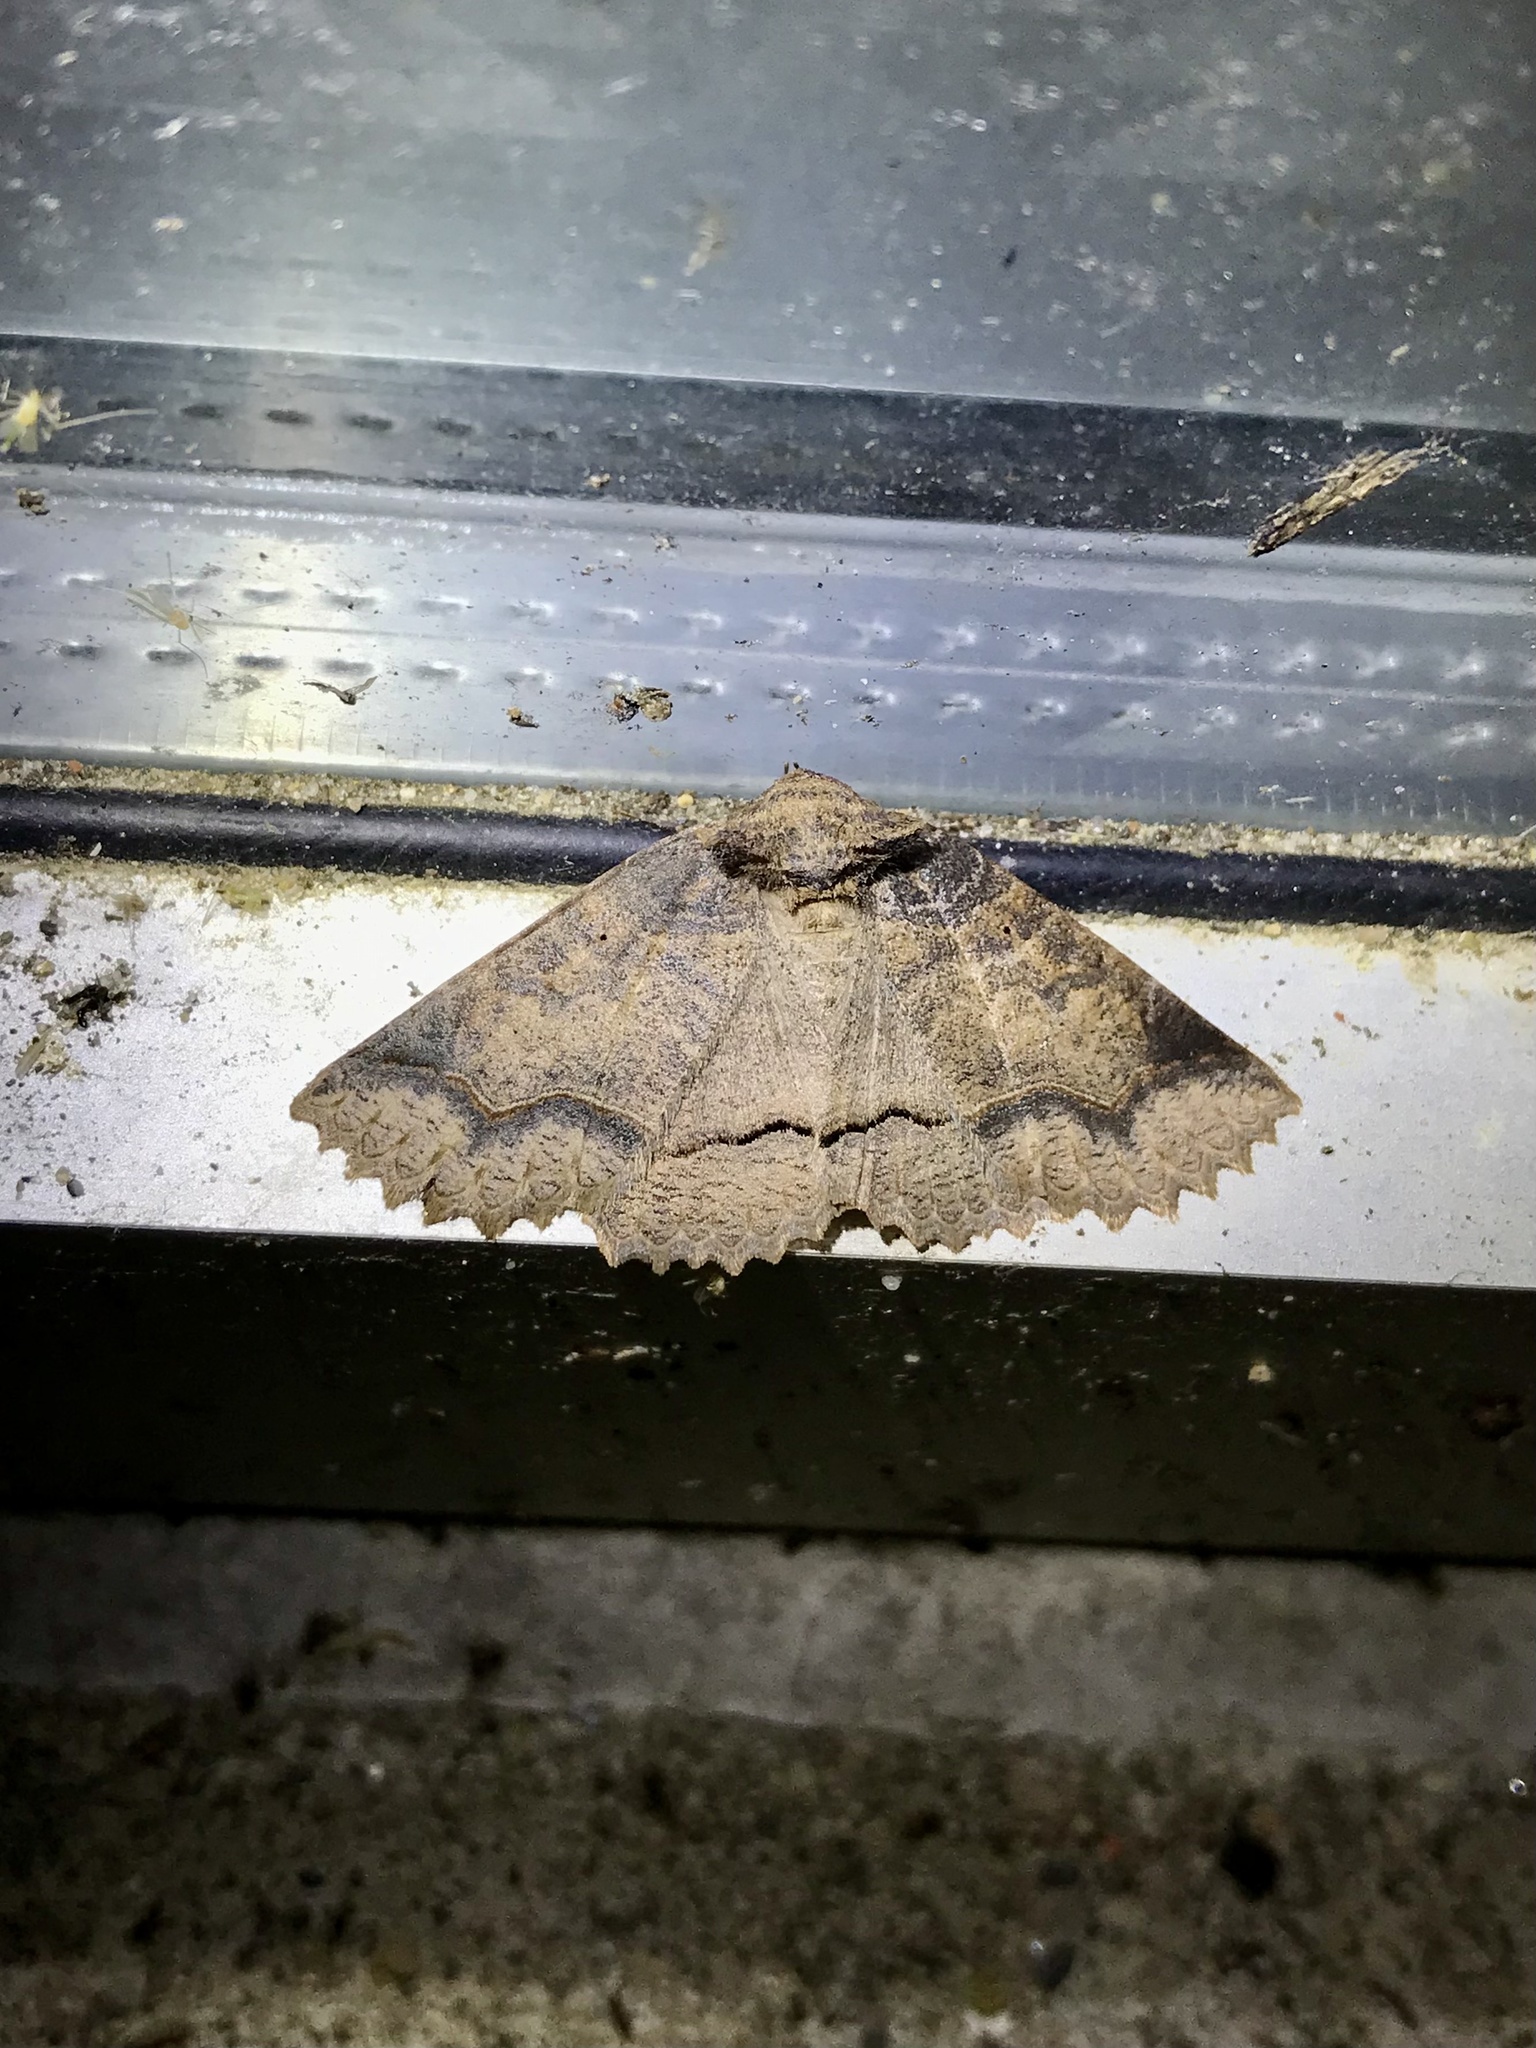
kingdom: Animalia
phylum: Arthropoda
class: Insecta
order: Lepidoptera
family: Erebidae
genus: Zale
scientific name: Zale unilineata
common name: One-lined zale moth
